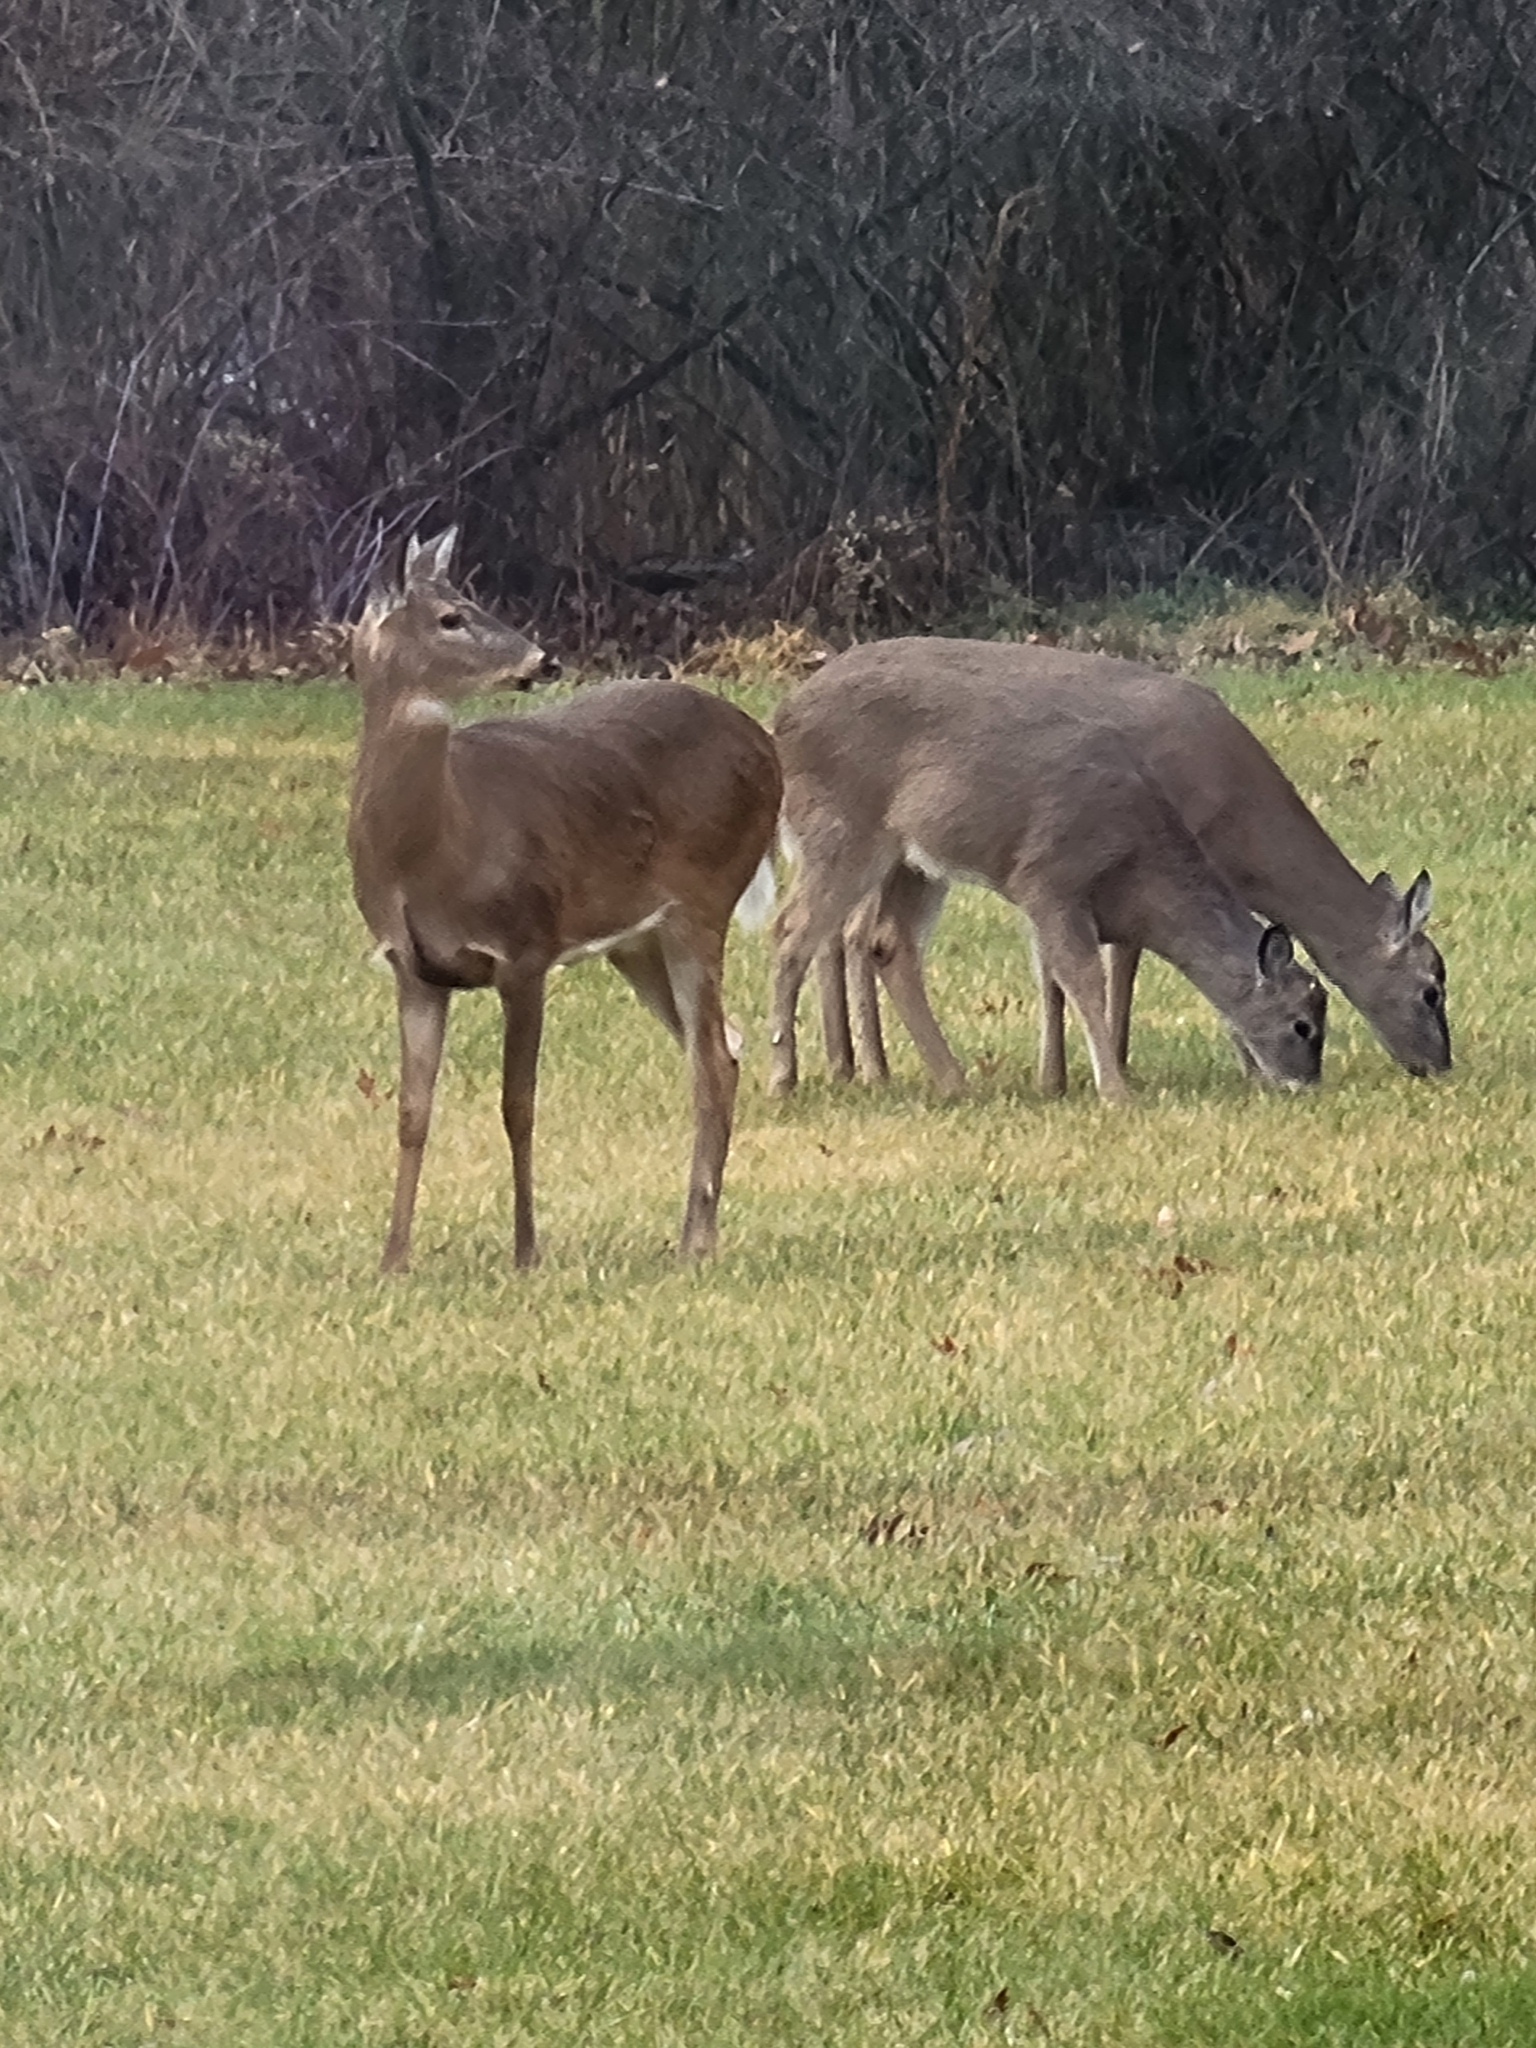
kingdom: Animalia
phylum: Chordata
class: Mammalia
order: Artiodactyla
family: Cervidae
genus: Odocoileus
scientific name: Odocoileus virginianus
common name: White-tailed deer
